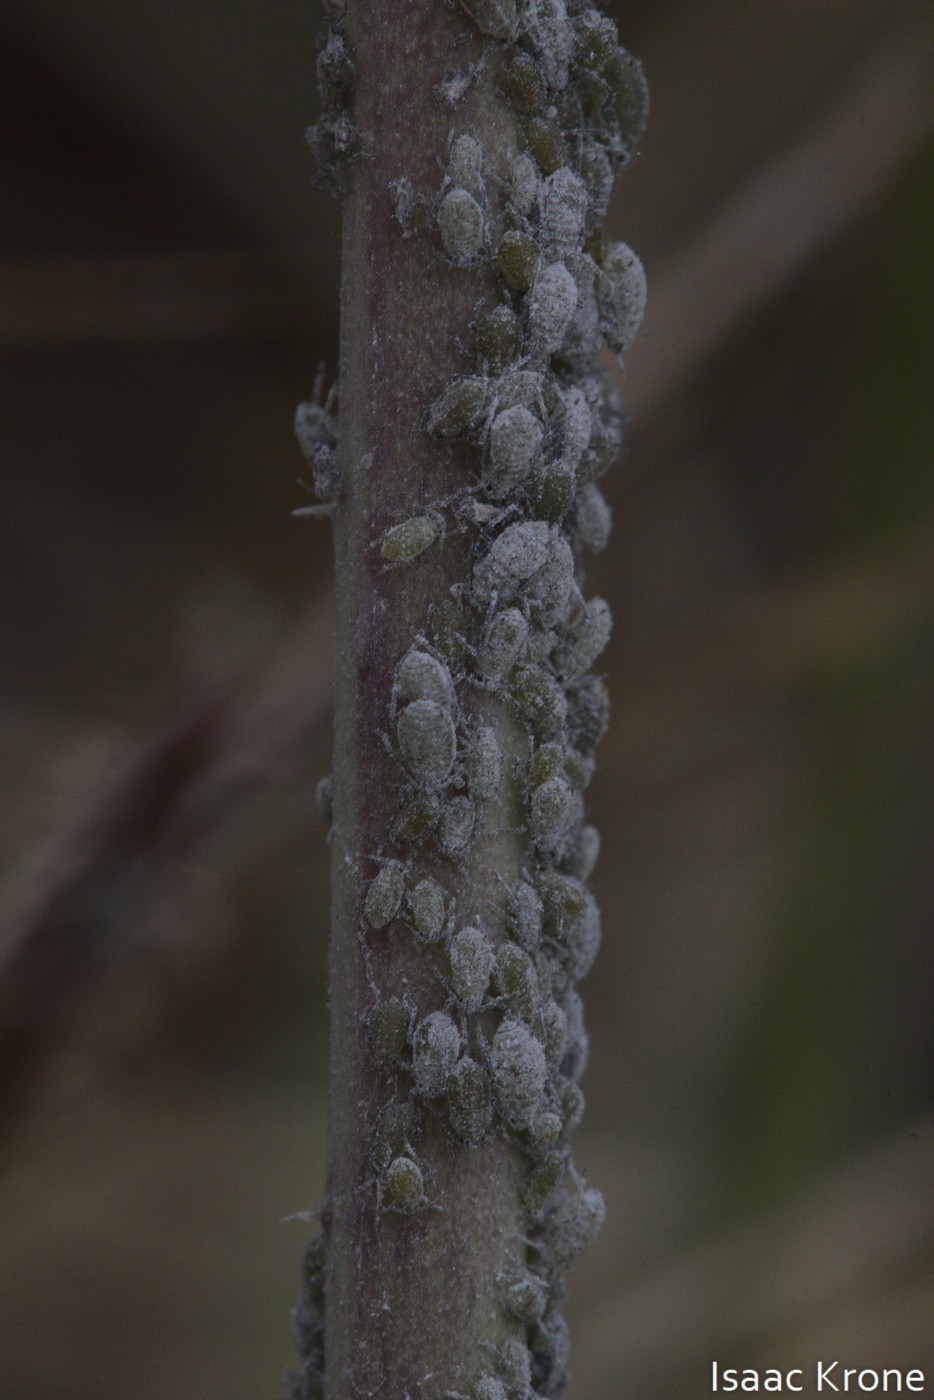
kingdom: Animalia
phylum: Arthropoda
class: Insecta
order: Hemiptera
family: Aphididae
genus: Brevicoryne
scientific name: Brevicoryne brassicae
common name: Cabbage aphid
